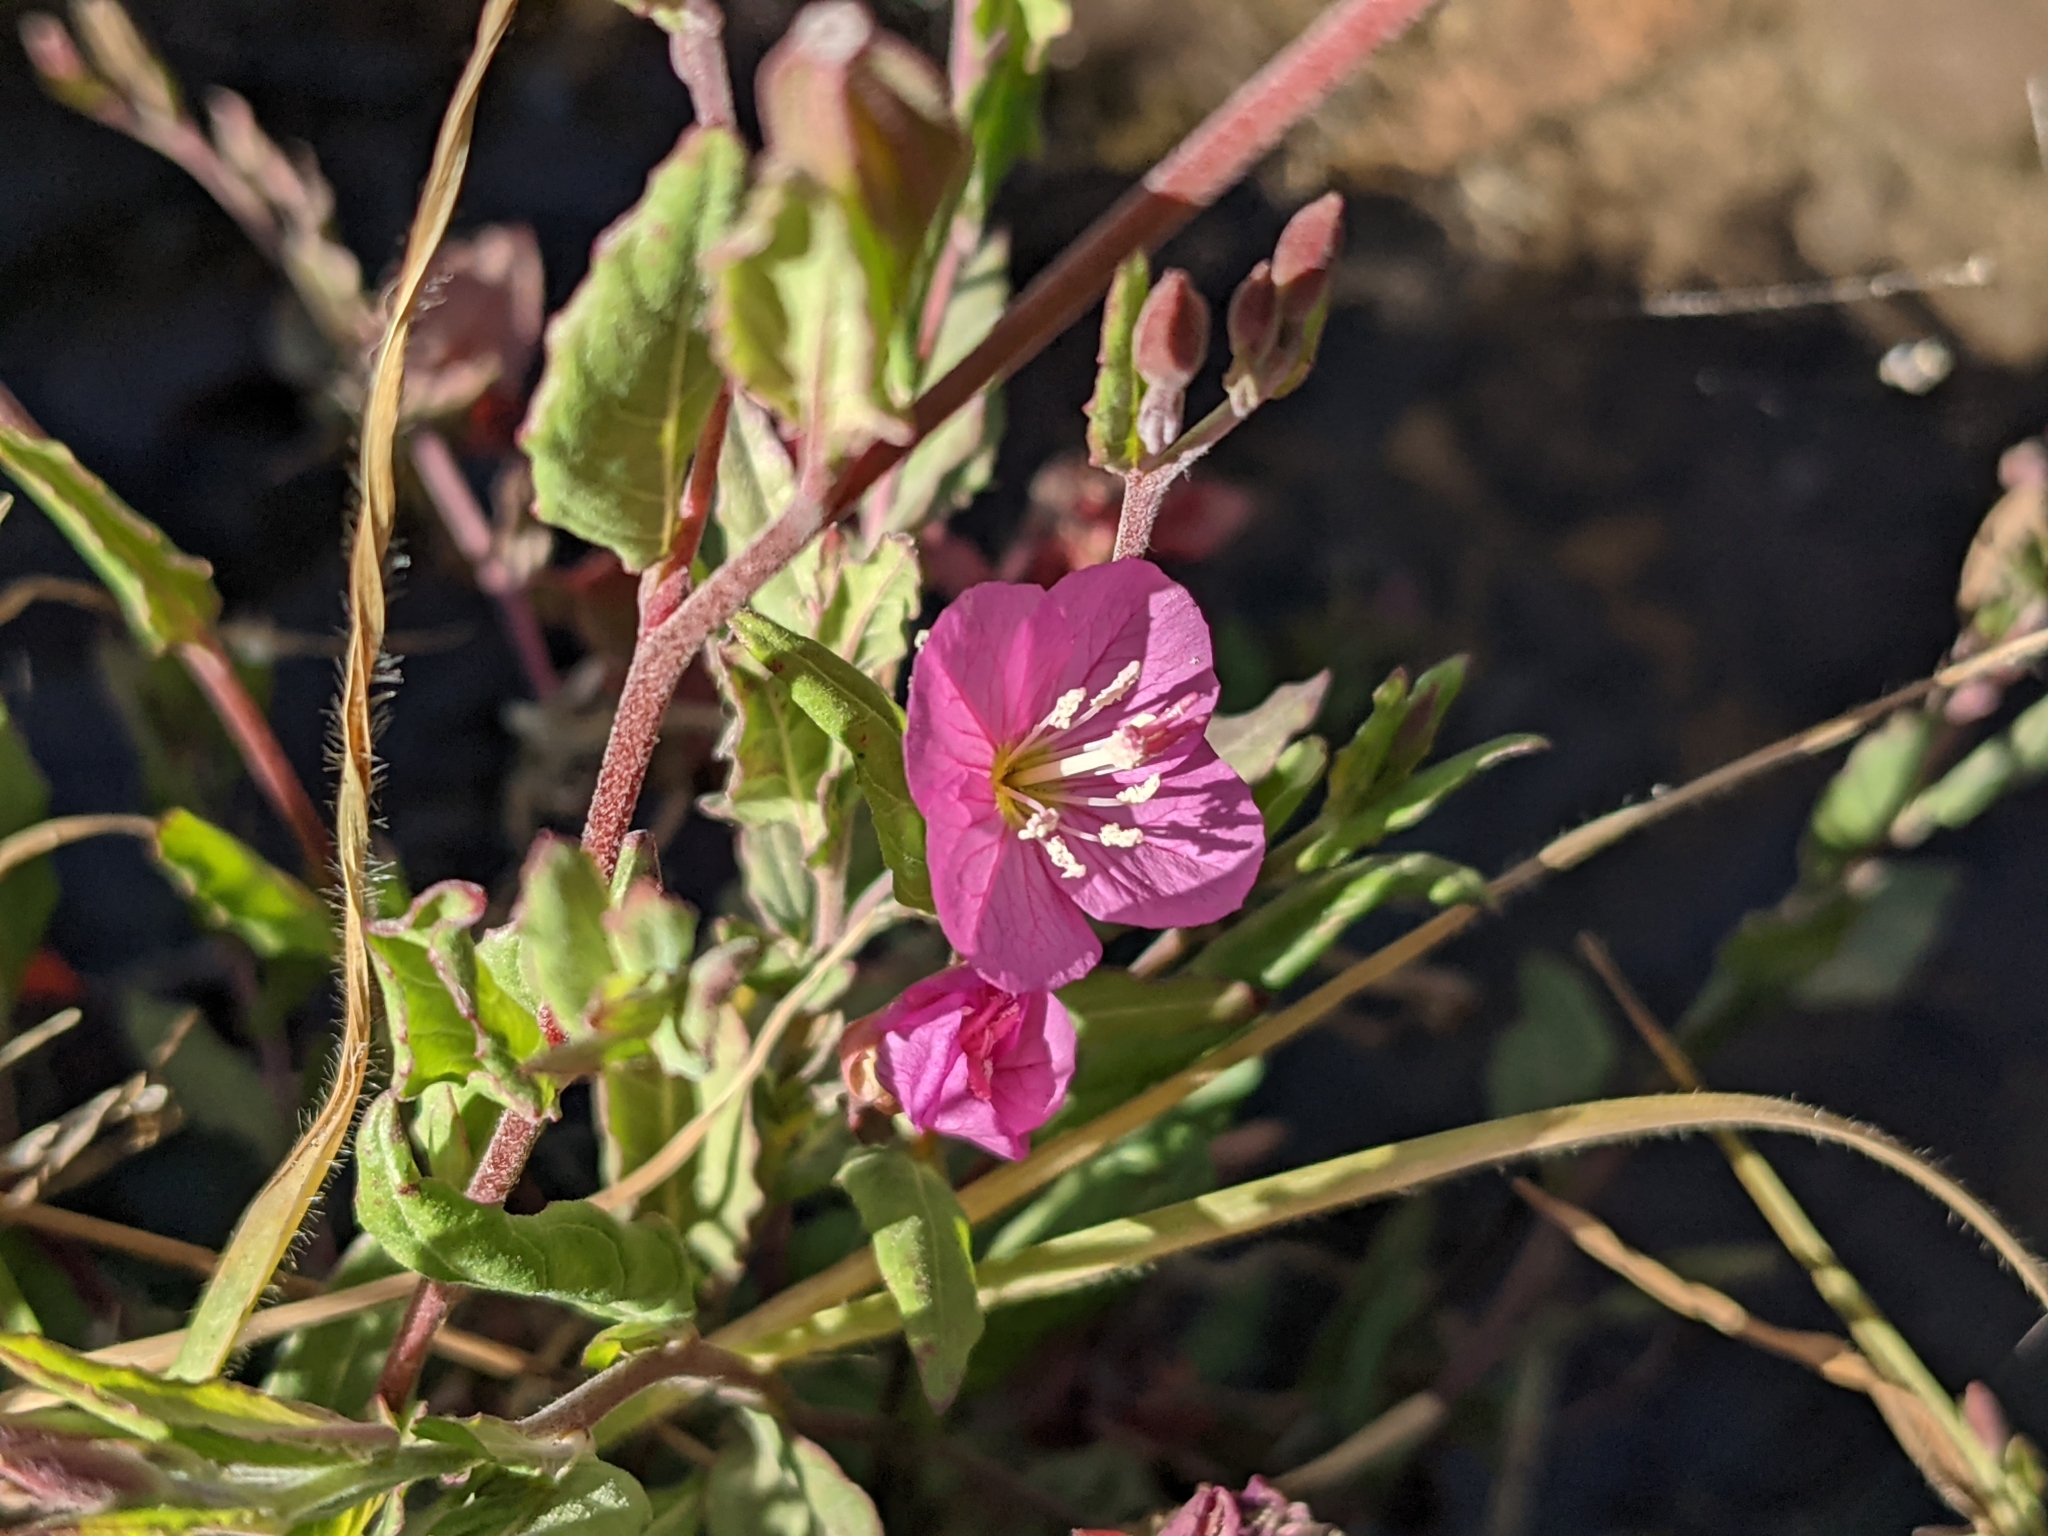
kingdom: Plantae
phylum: Tracheophyta
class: Magnoliopsida
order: Myrtales
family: Onagraceae
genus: Oenothera
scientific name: Oenothera rosea
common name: Rosy evening-primrose
